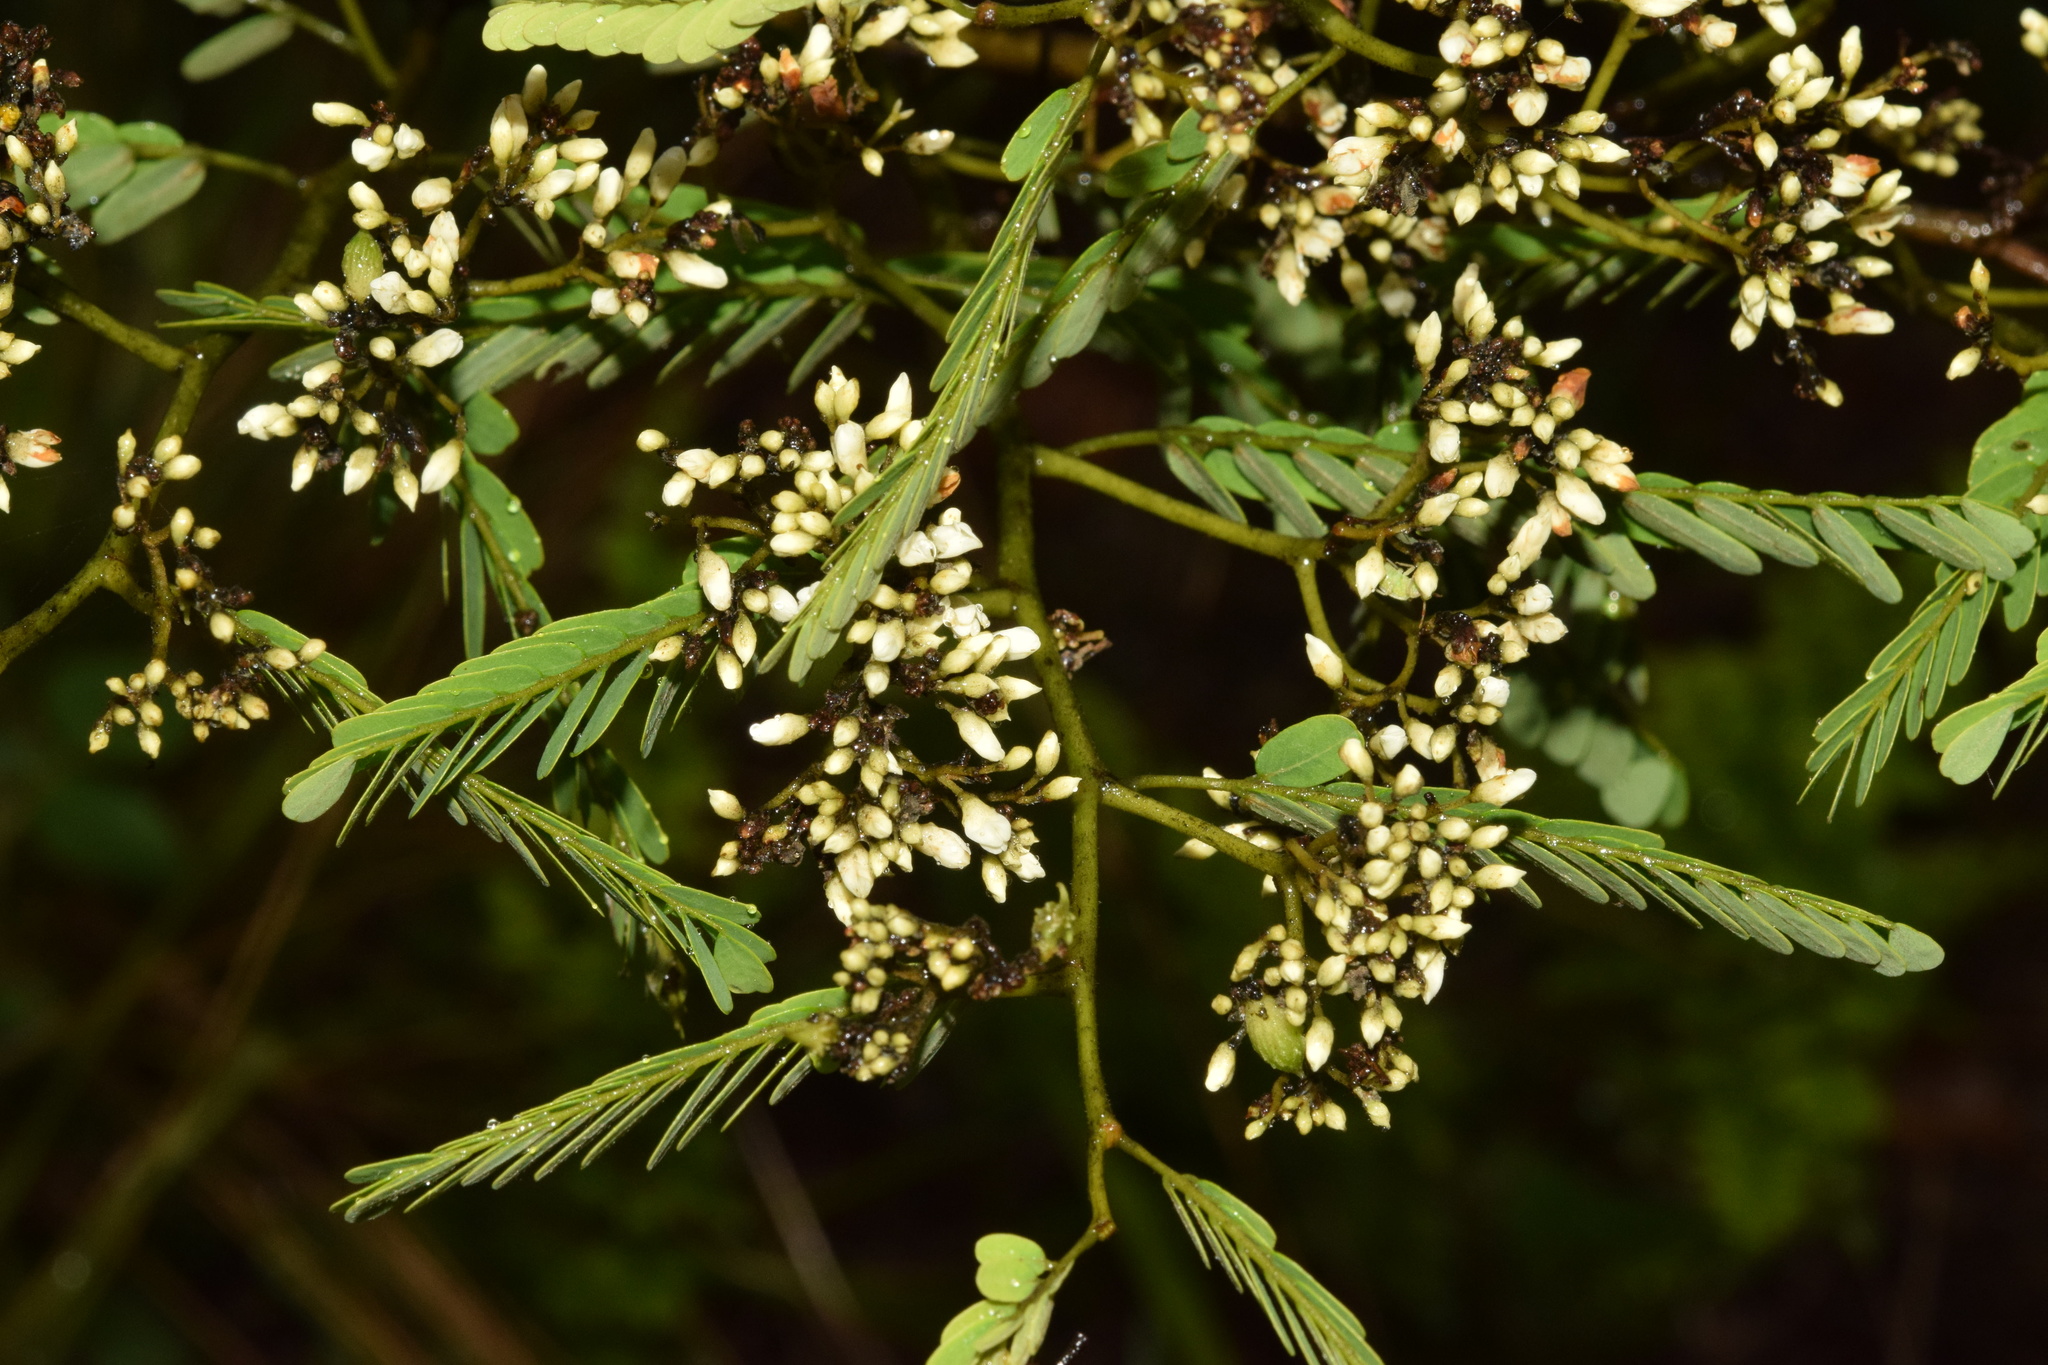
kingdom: Plantae
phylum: Tracheophyta
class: Magnoliopsida
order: Fabales
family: Fabaceae
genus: Dalbergia
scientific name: Dalbergia armata
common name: Hluhluwe climber
